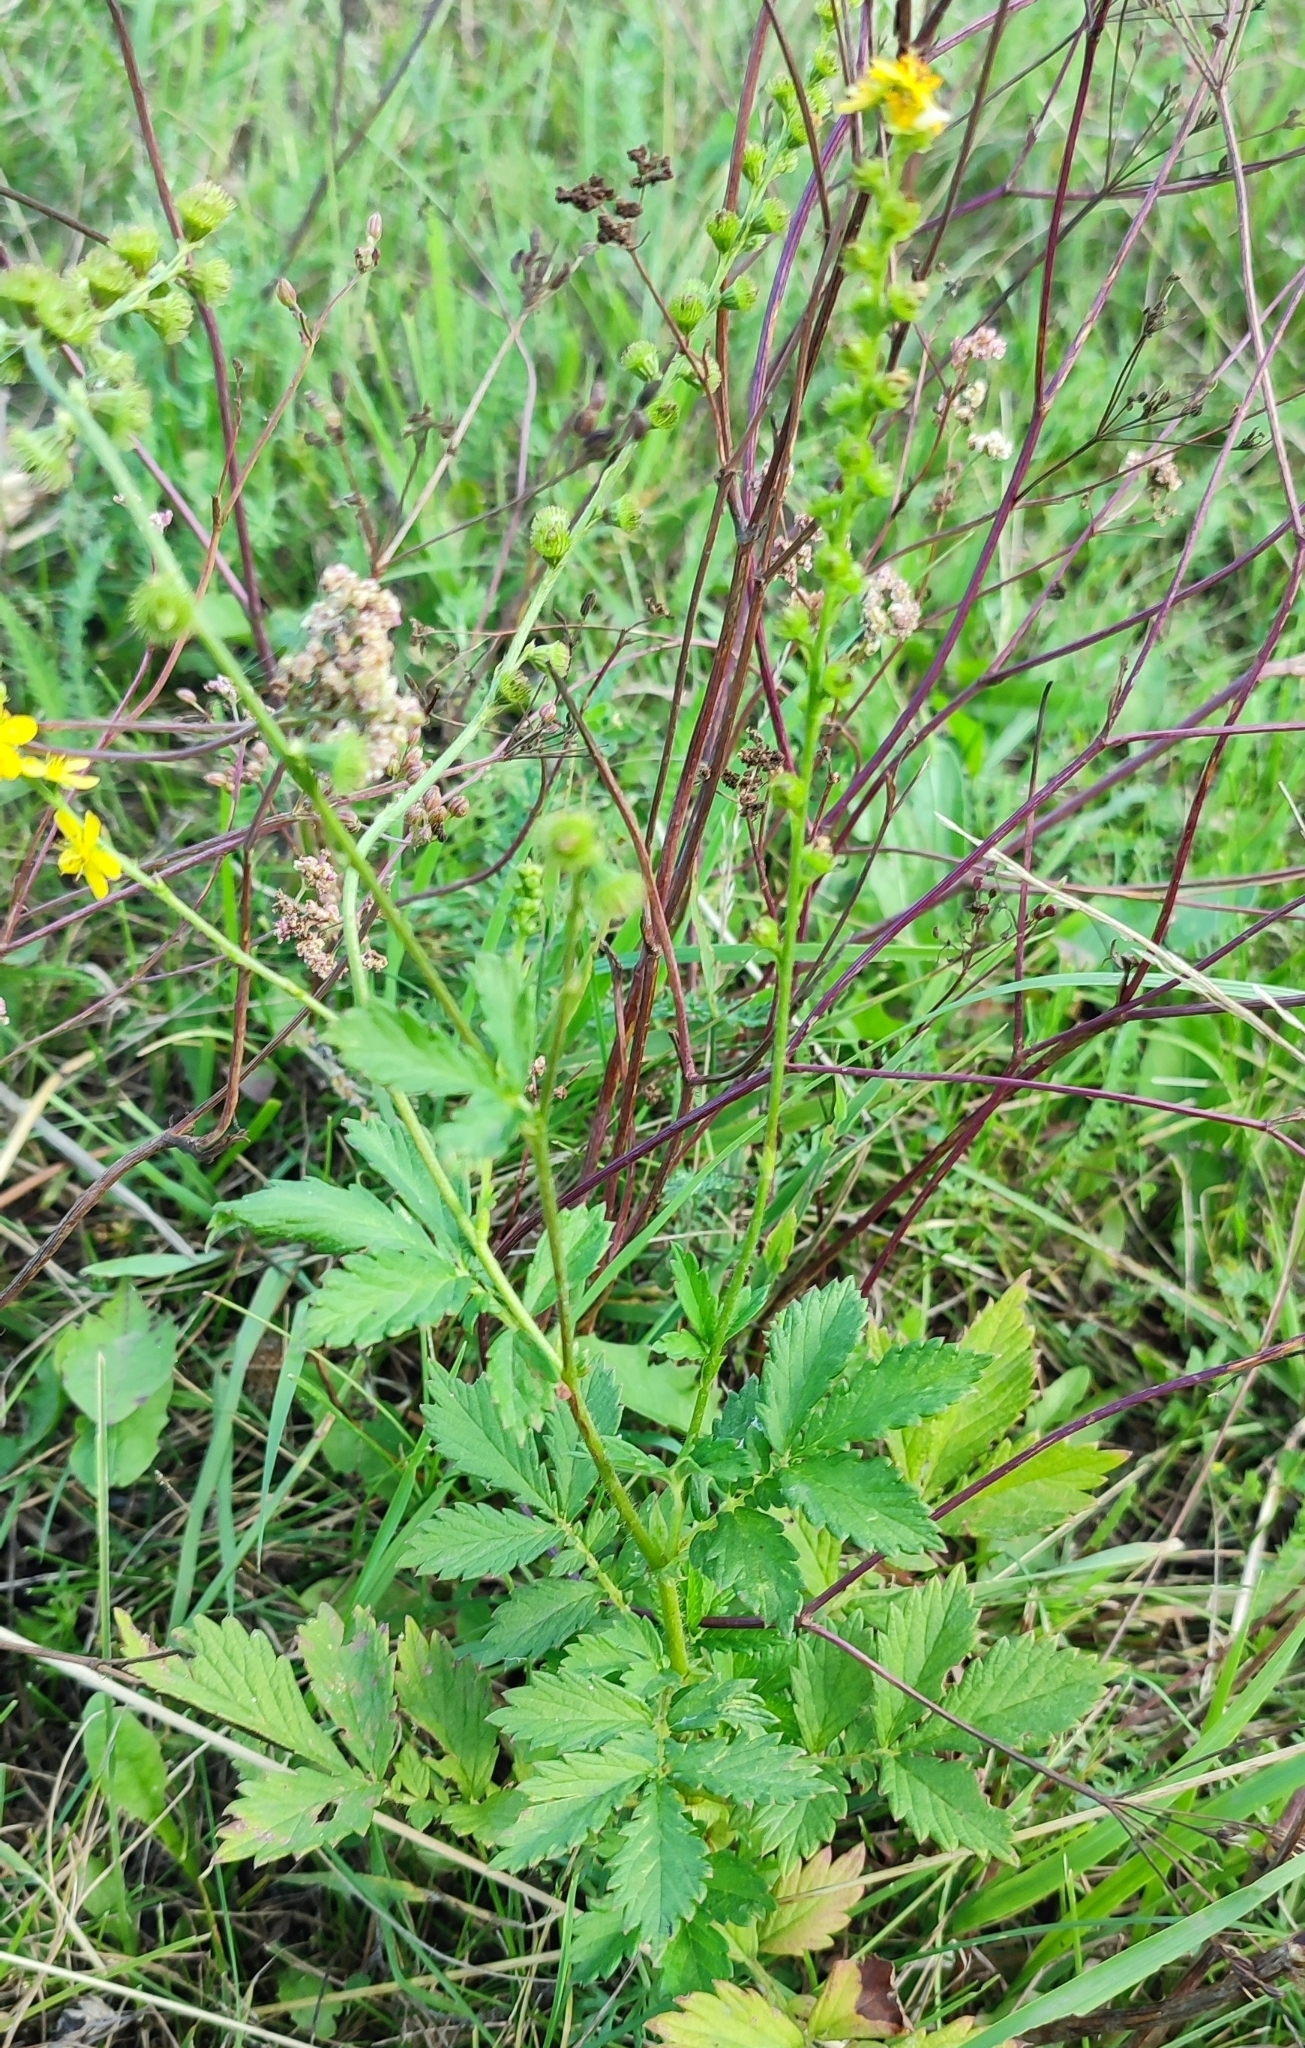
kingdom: Plantae
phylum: Tracheophyta
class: Magnoliopsida
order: Rosales
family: Rosaceae
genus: Agrimonia
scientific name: Agrimonia pilosa
